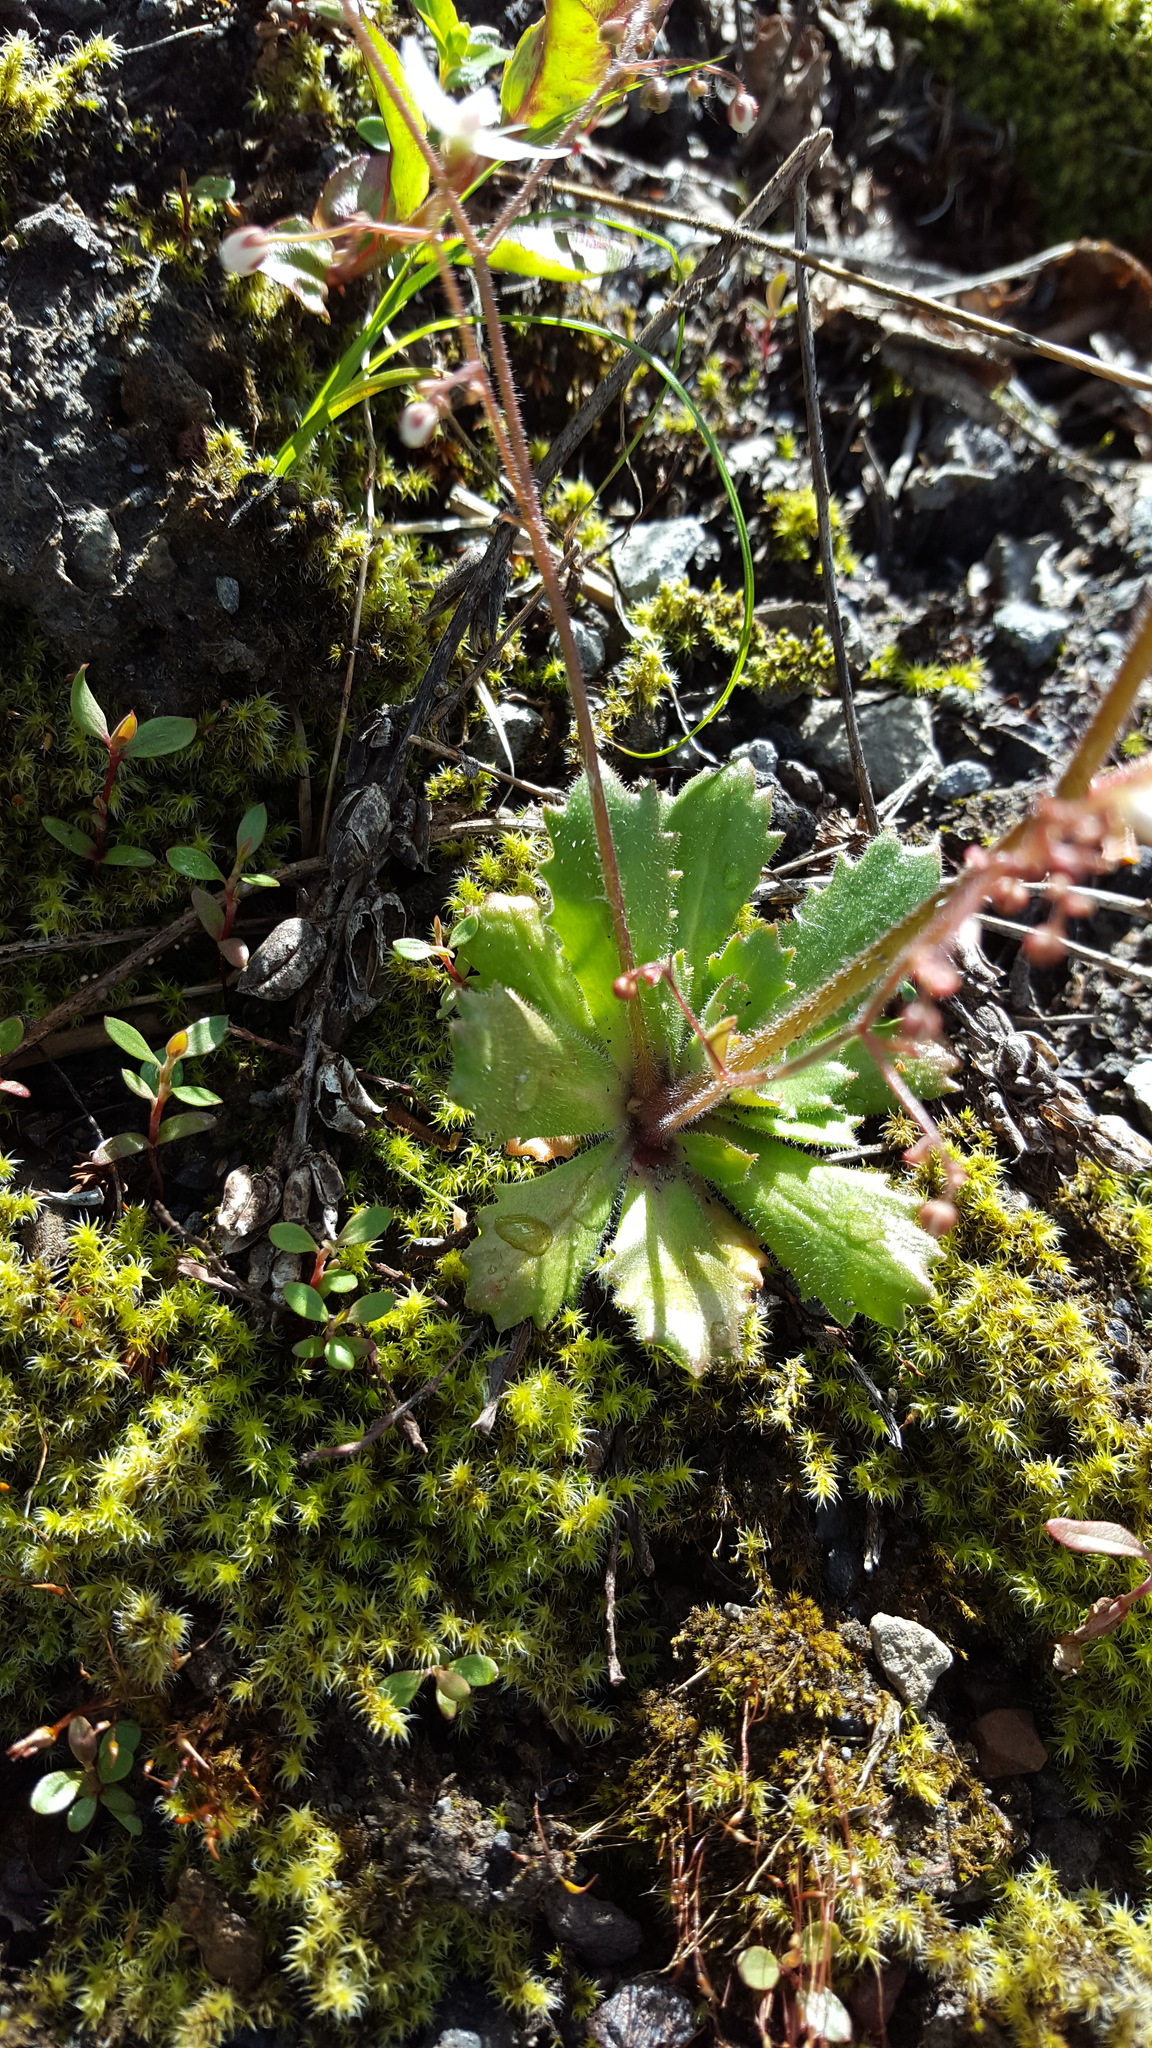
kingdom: Plantae
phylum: Tracheophyta
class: Magnoliopsida
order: Saxifragales
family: Saxifragaceae
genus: Micranthes
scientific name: Micranthes ferruginea
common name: Rusty saxifrage
